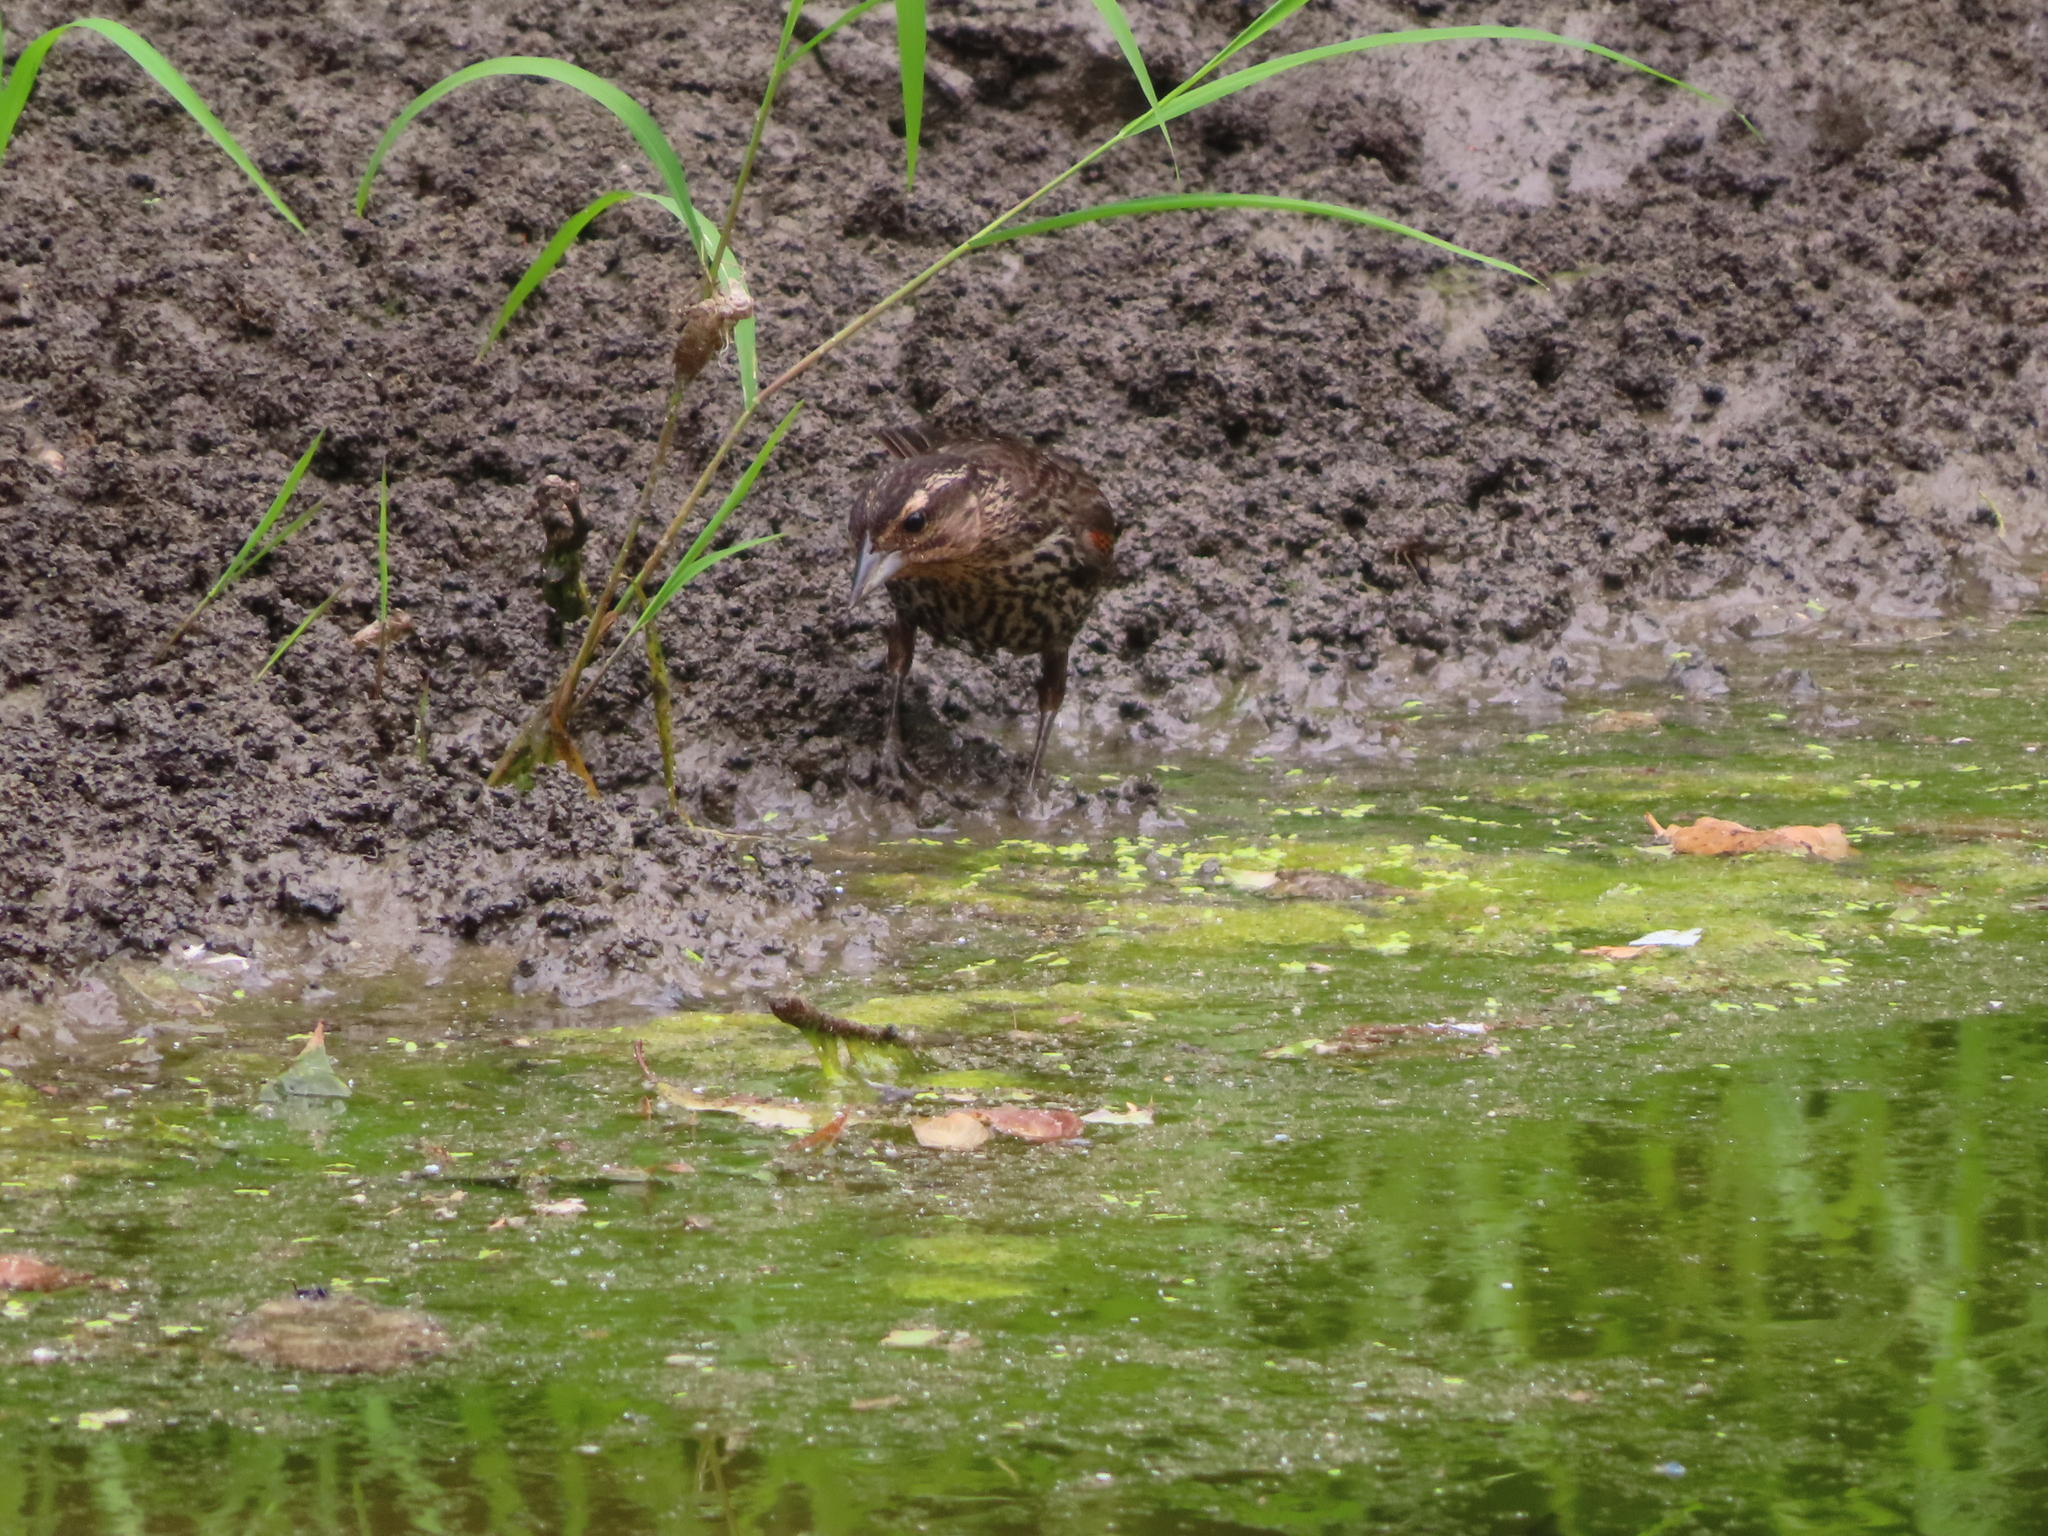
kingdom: Animalia
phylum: Chordata
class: Aves
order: Passeriformes
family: Icteridae
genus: Agelaius
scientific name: Agelaius phoeniceus
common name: Red-winged blackbird
